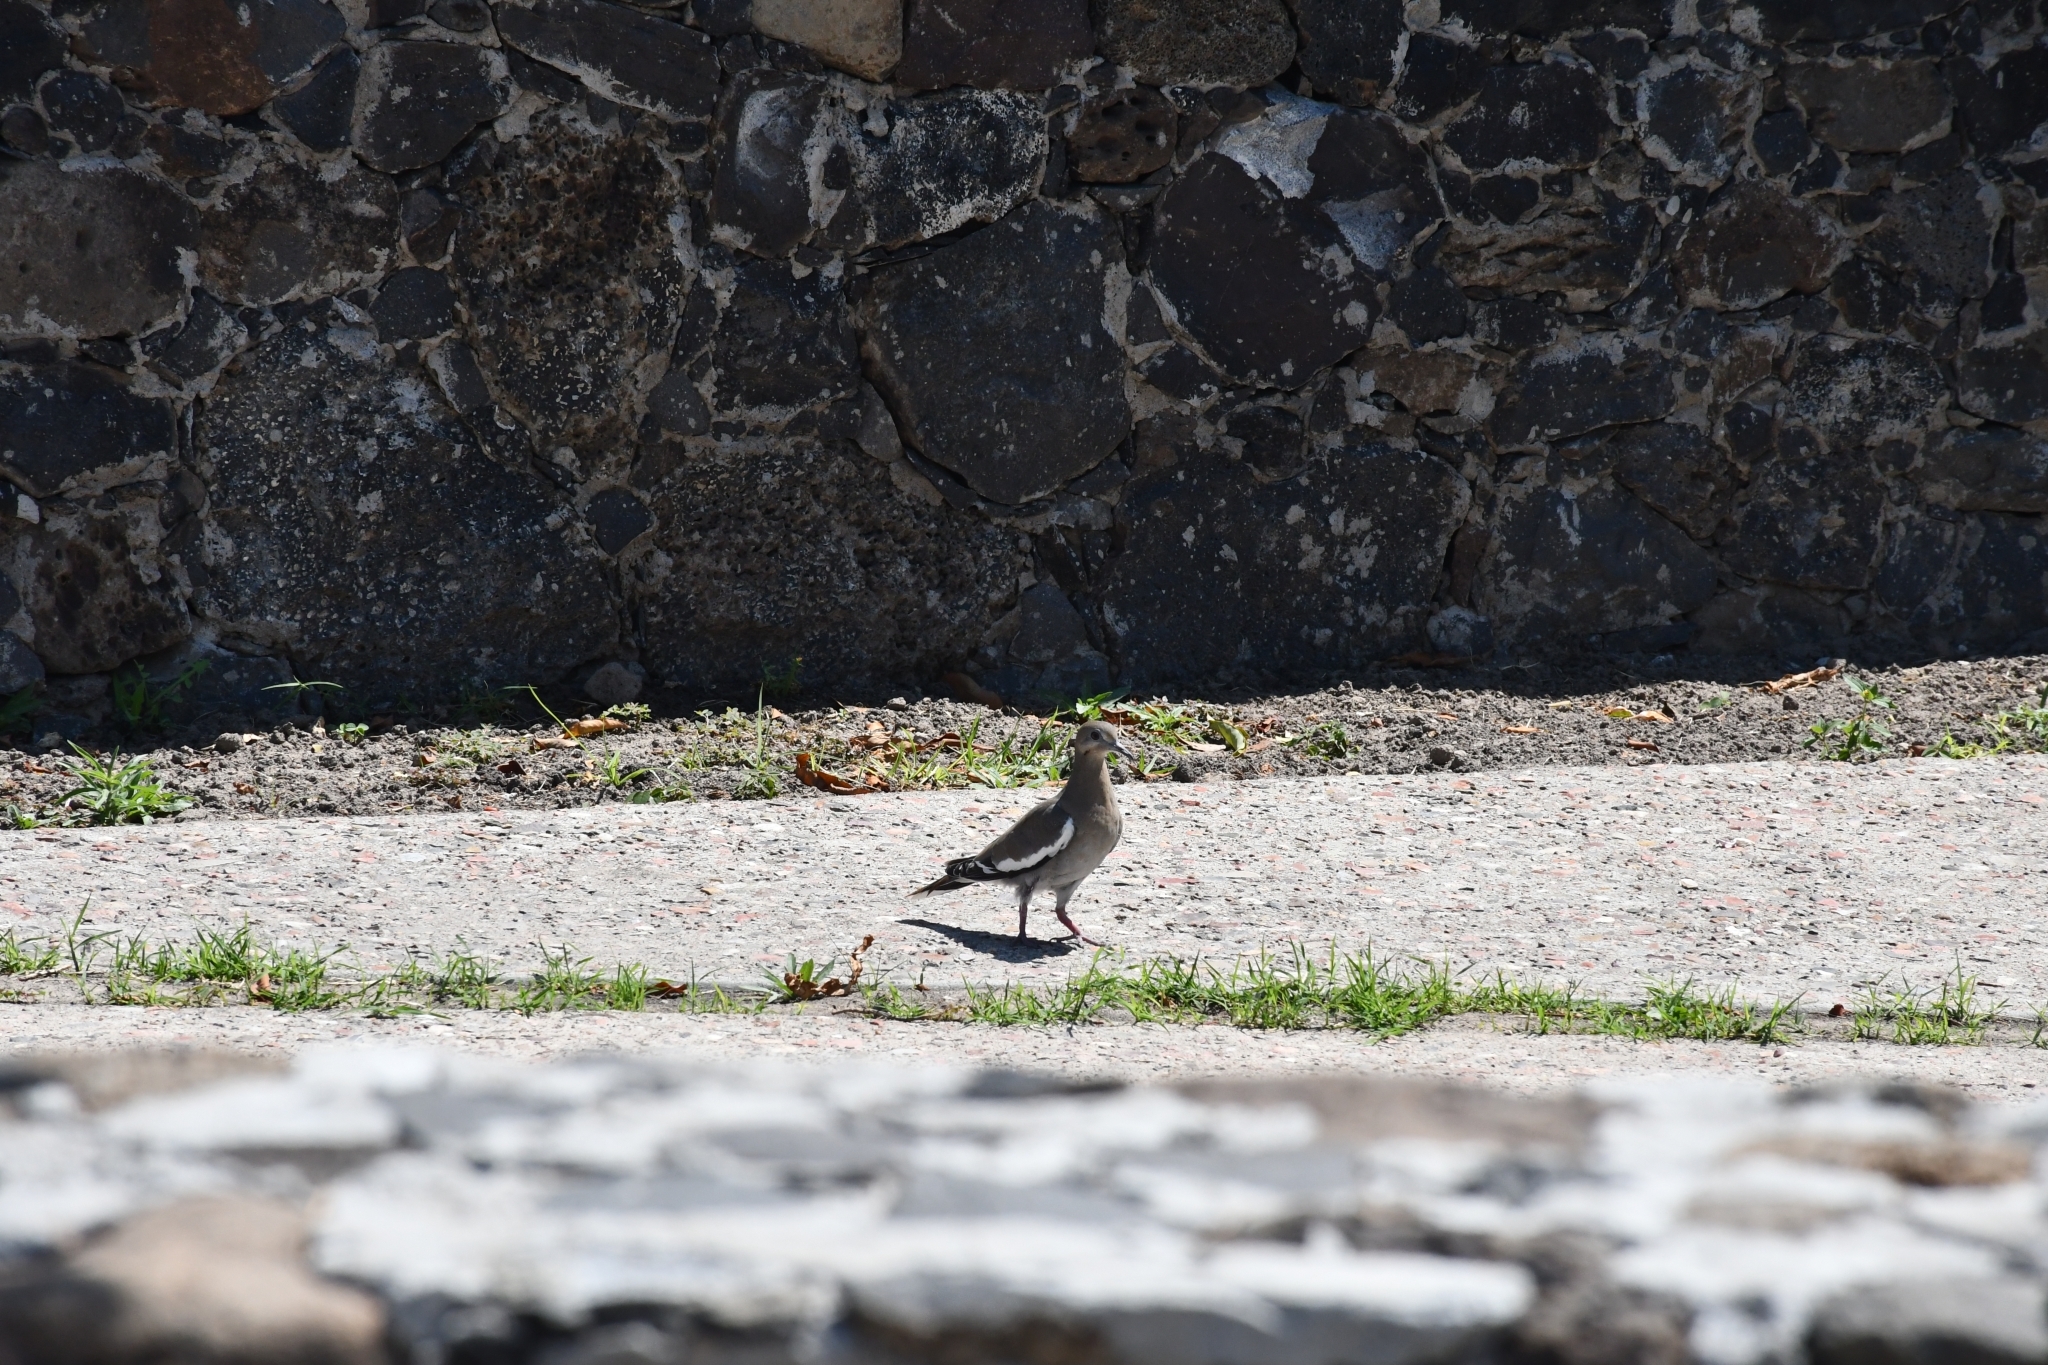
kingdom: Animalia
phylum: Chordata
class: Aves
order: Columbiformes
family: Columbidae
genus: Zenaida
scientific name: Zenaida asiatica
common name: White-winged dove
